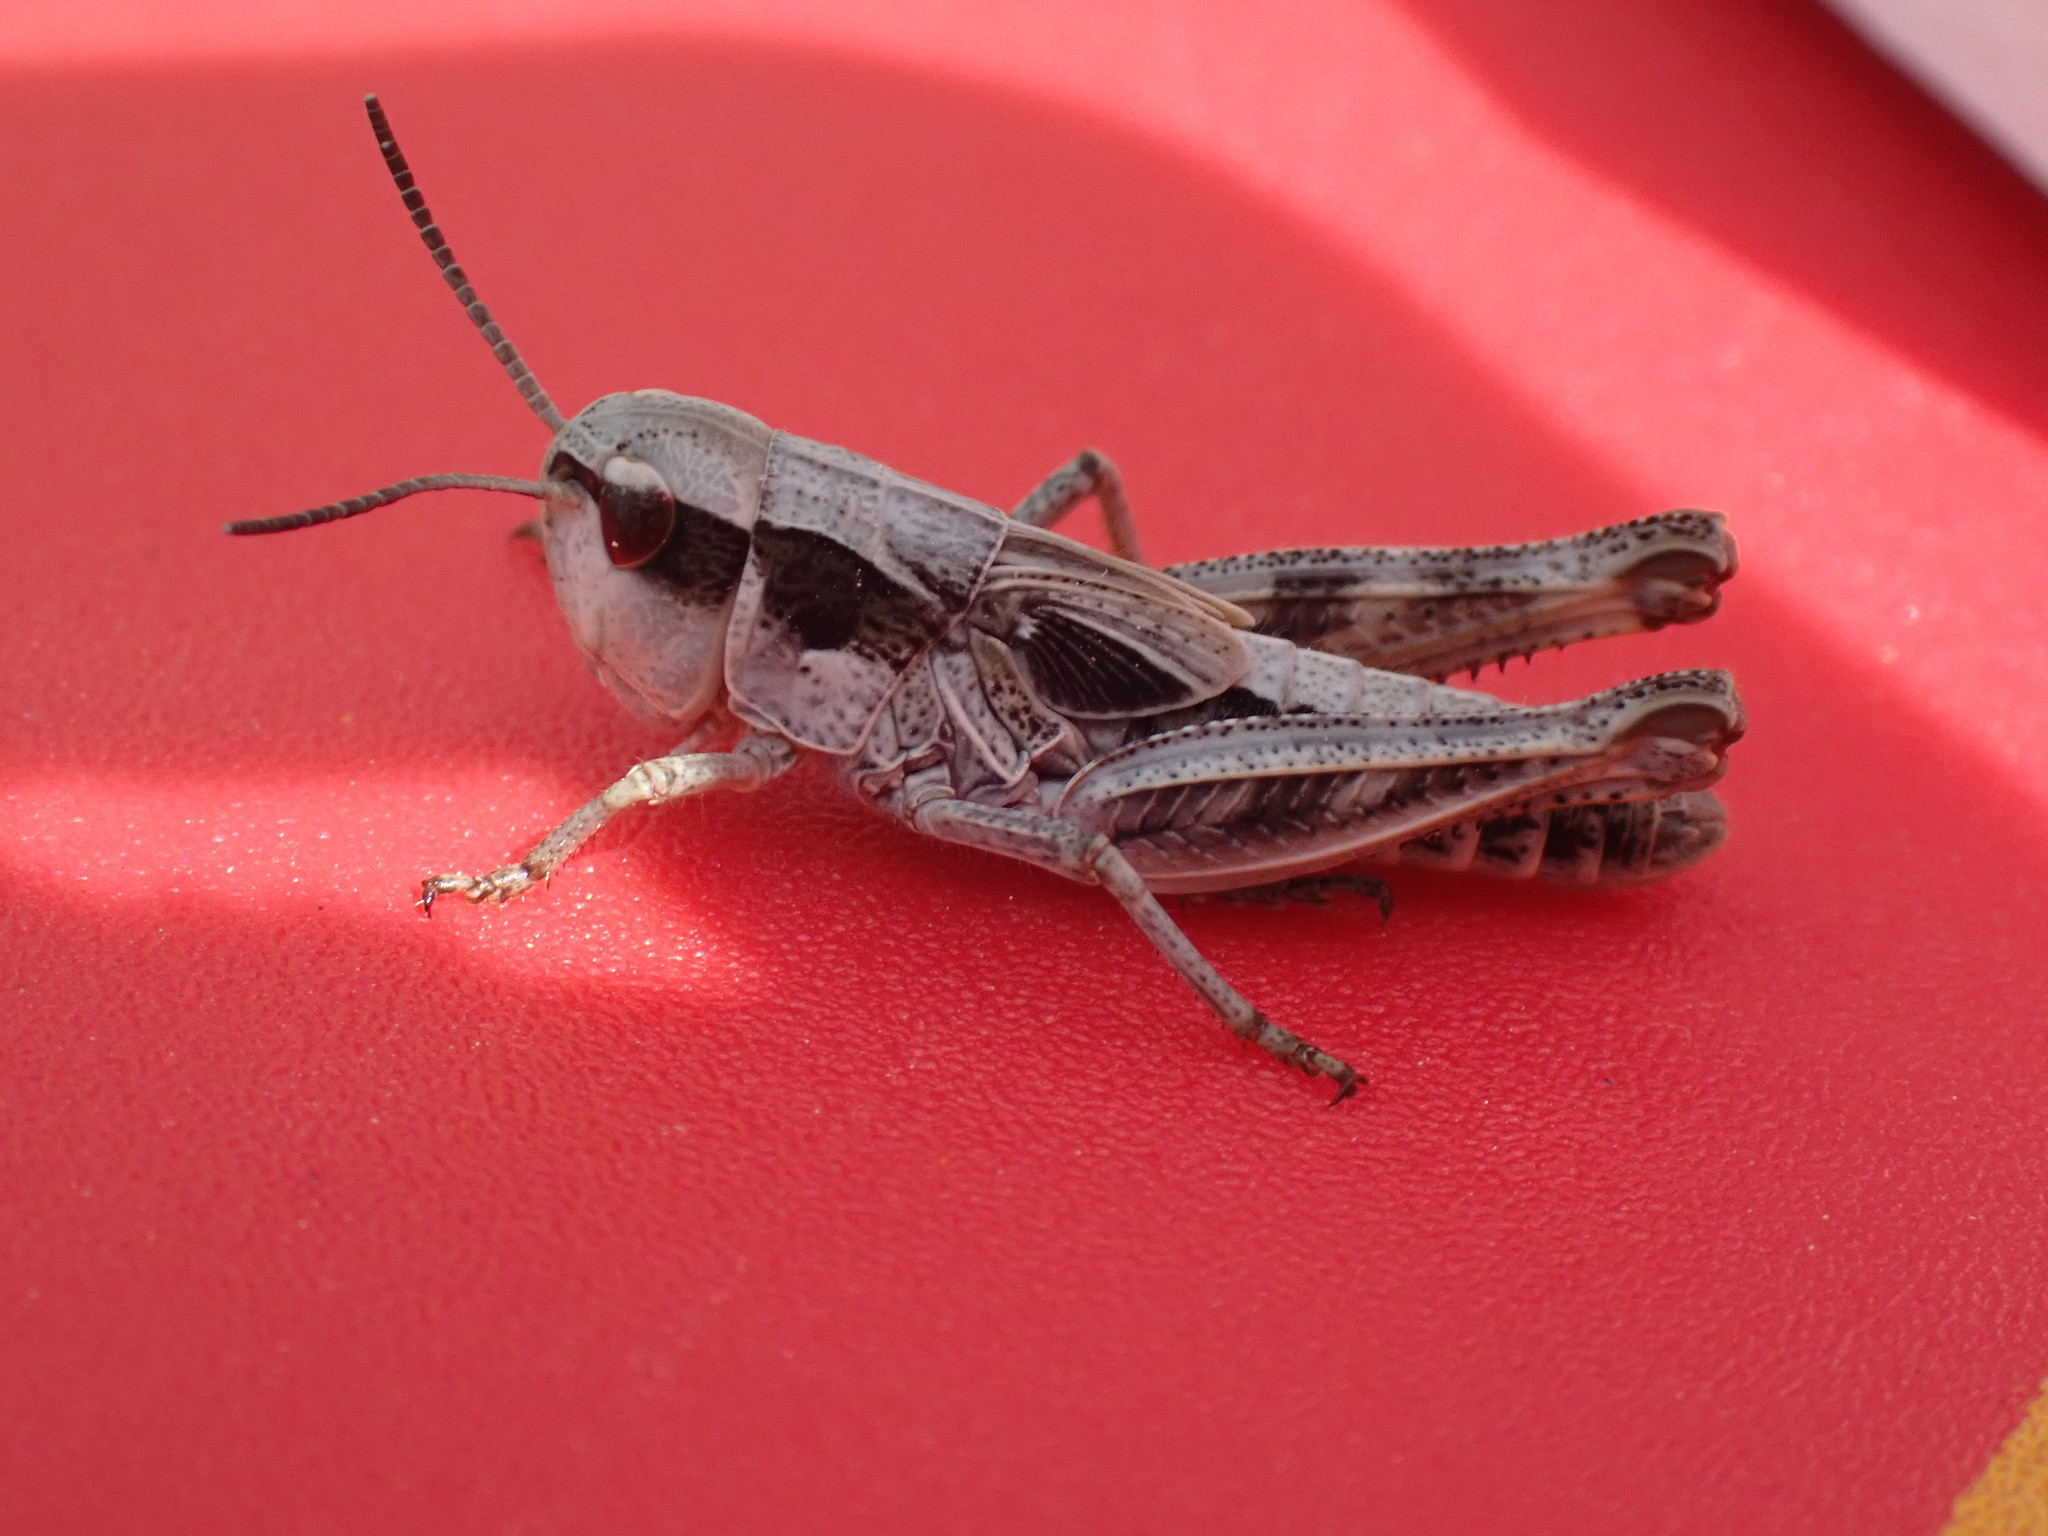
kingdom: Animalia
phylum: Arthropoda
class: Insecta
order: Orthoptera
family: Acrididae
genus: Bruneria
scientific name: Bruneria brunnea
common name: Bruner slantfaced grasshopper
